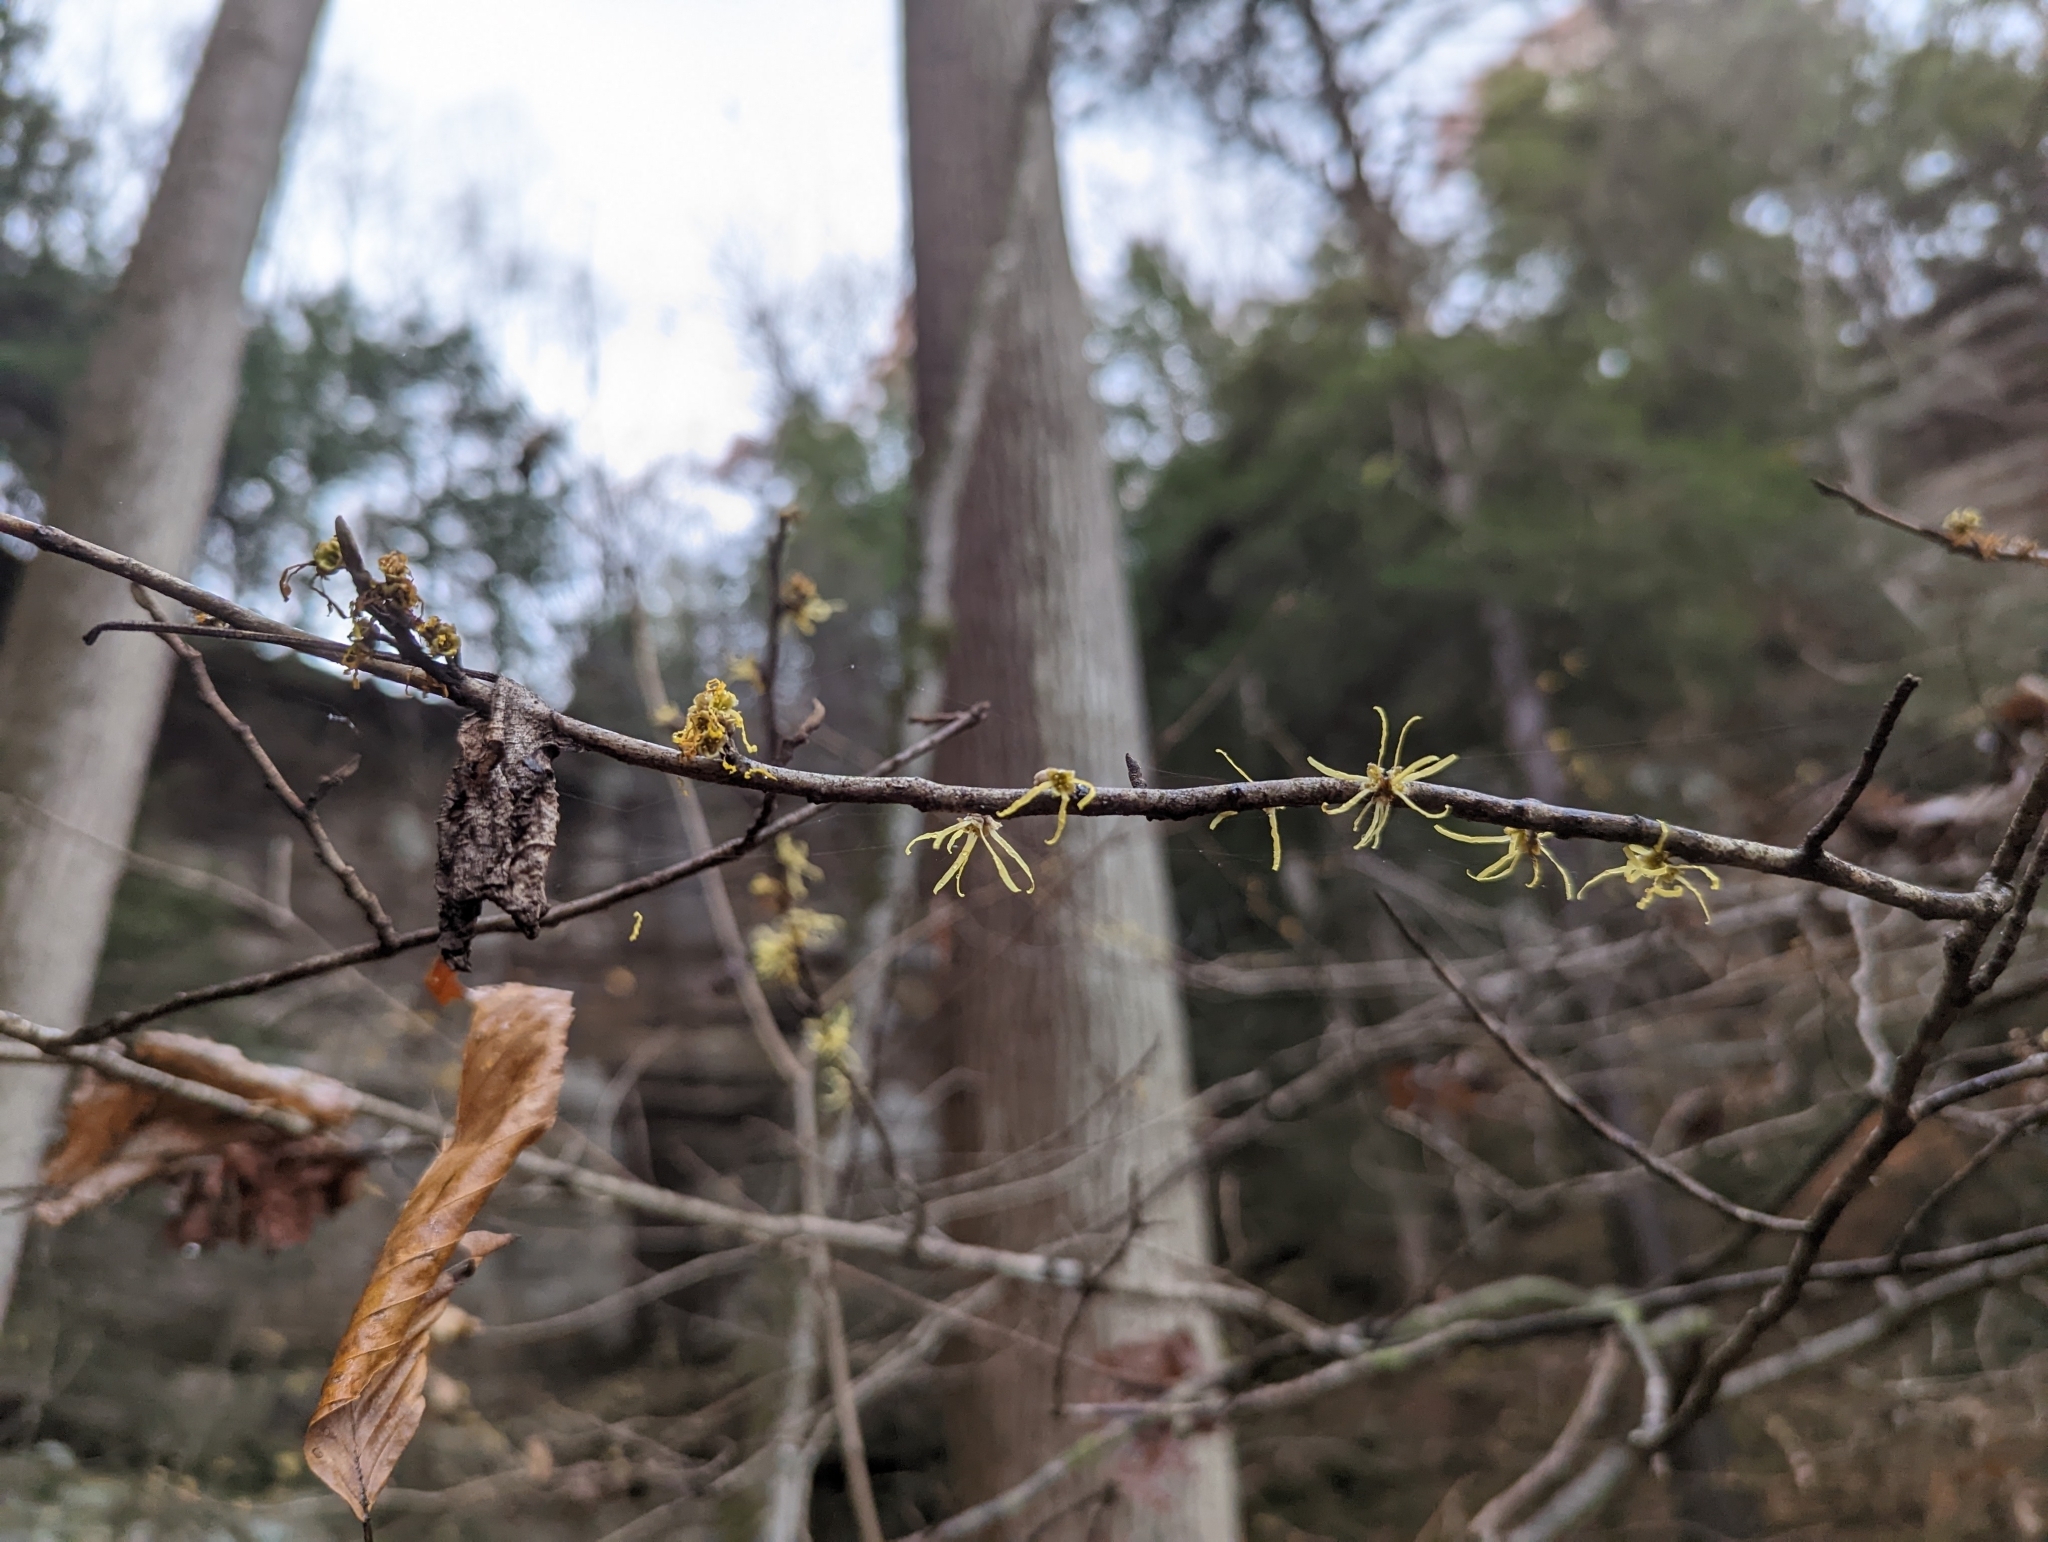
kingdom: Plantae
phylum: Tracheophyta
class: Magnoliopsida
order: Saxifragales
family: Hamamelidaceae
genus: Hamamelis
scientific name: Hamamelis virginiana
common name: Witch-hazel
